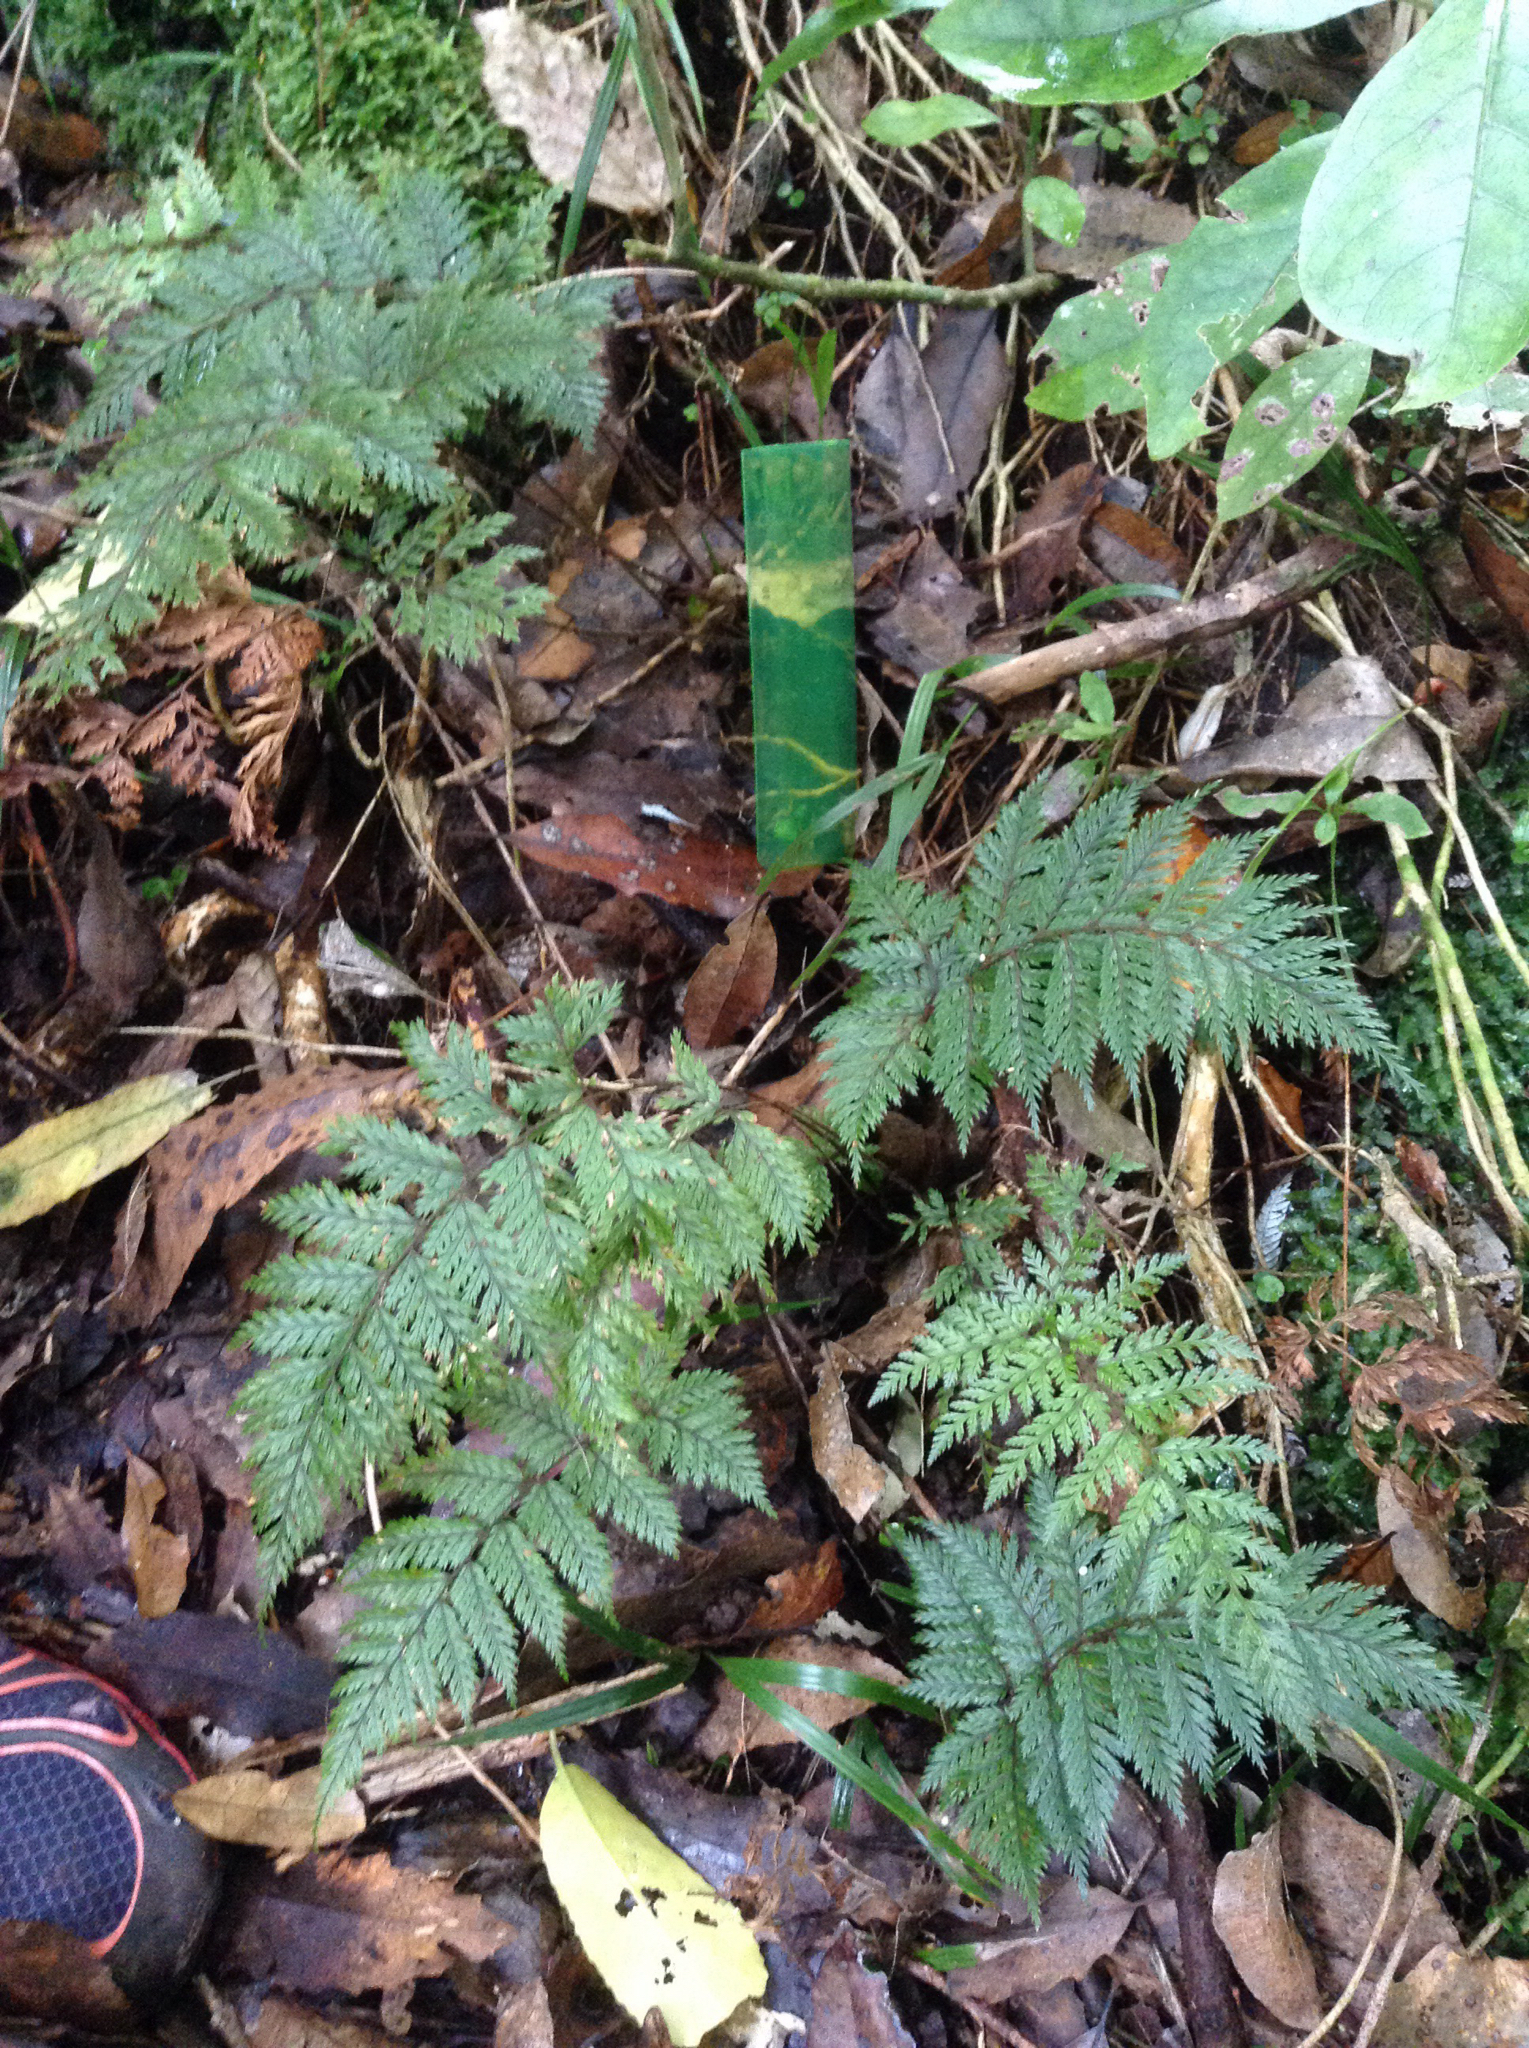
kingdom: Plantae
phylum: Tracheophyta
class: Polypodiopsida
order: Polypodiales
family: Dryopteridaceae
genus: Lastreopsis
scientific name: Lastreopsis hispida
